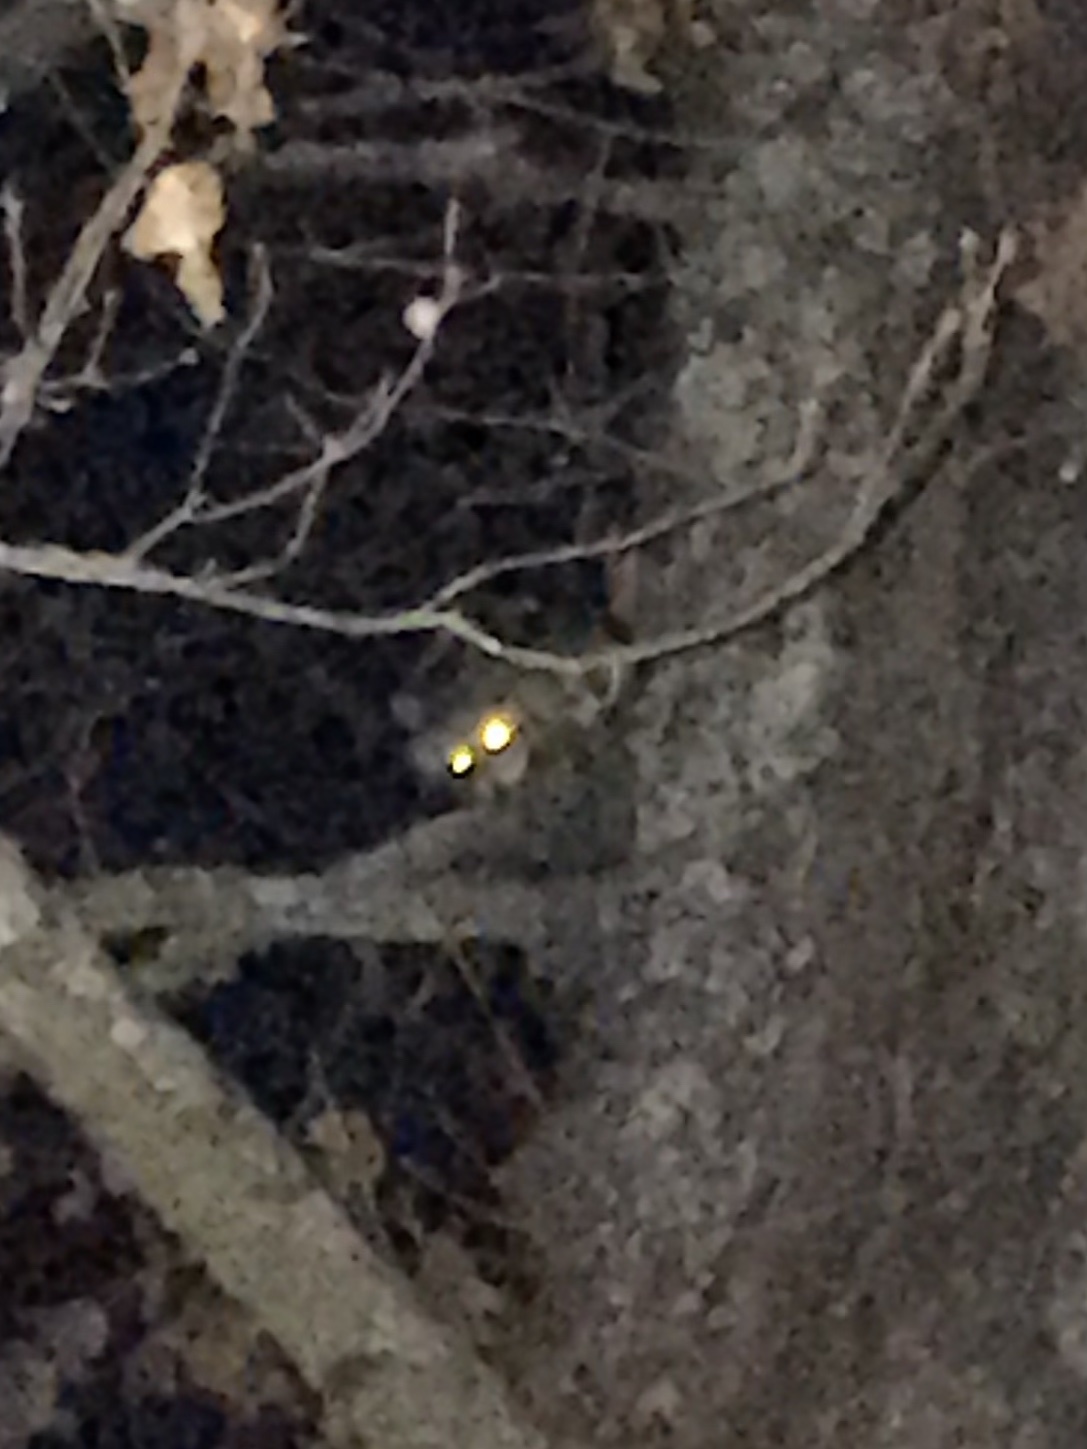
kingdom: Animalia
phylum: Chordata
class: Mammalia
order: Carnivora
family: Procyonidae
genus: Procyon
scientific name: Procyon lotor
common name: Raccoon
